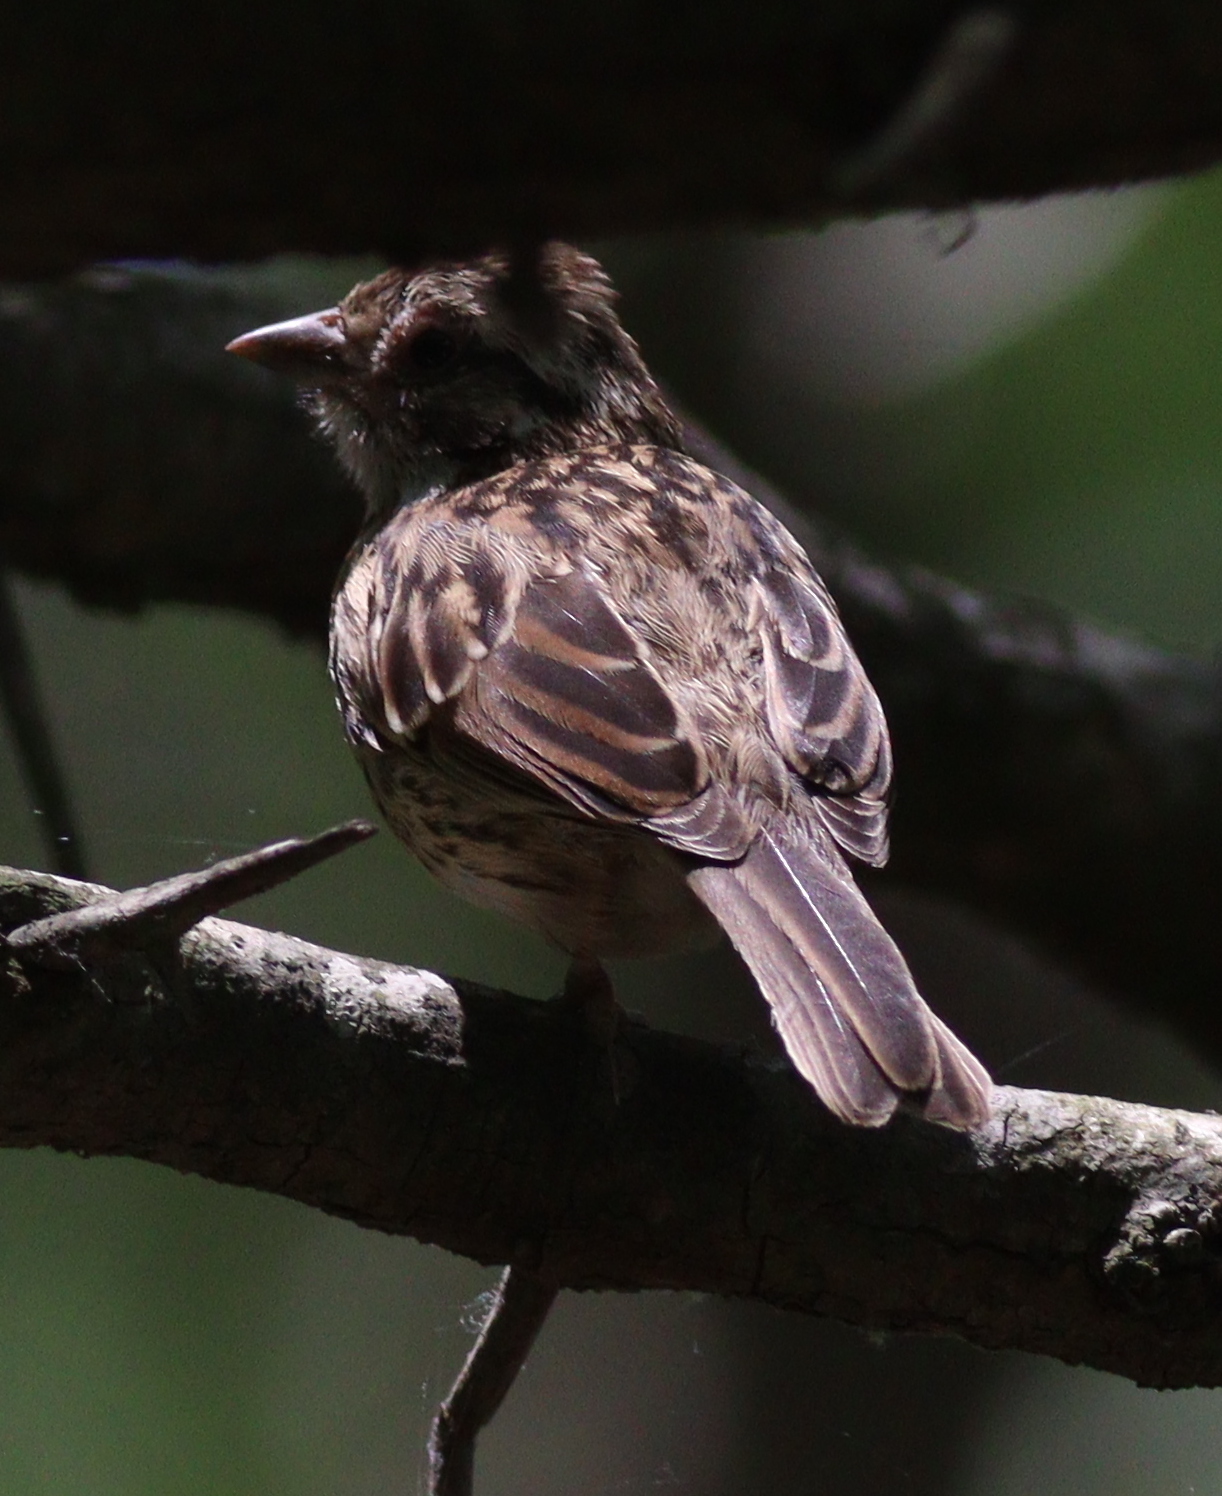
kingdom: Animalia
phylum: Chordata
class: Aves
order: Passeriformes
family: Passerellidae
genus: Zonotrichia
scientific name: Zonotrichia capensis
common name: Rufous-collared sparrow
